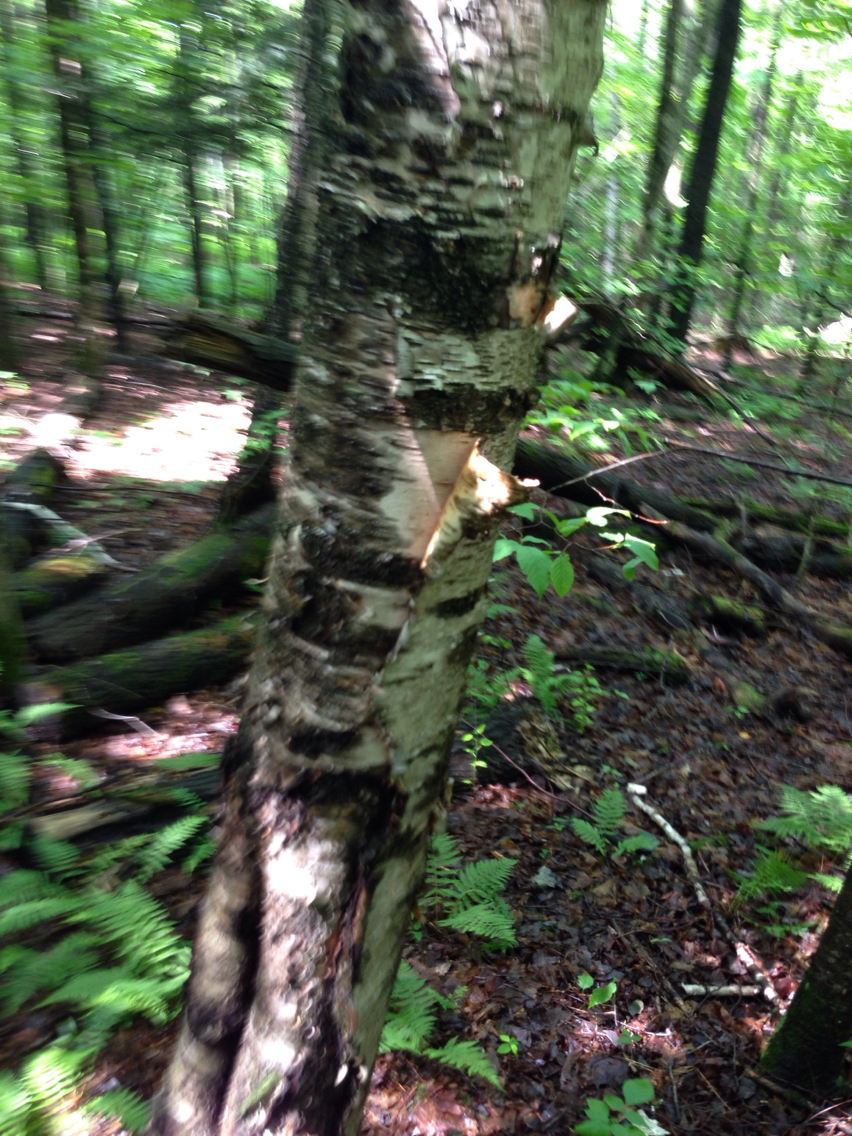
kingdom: Plantae
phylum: Tracheophyta
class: Magnoliopsida
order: Fagales
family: Betulaceae
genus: Betula
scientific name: Betula papyrifera
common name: Paper birch
